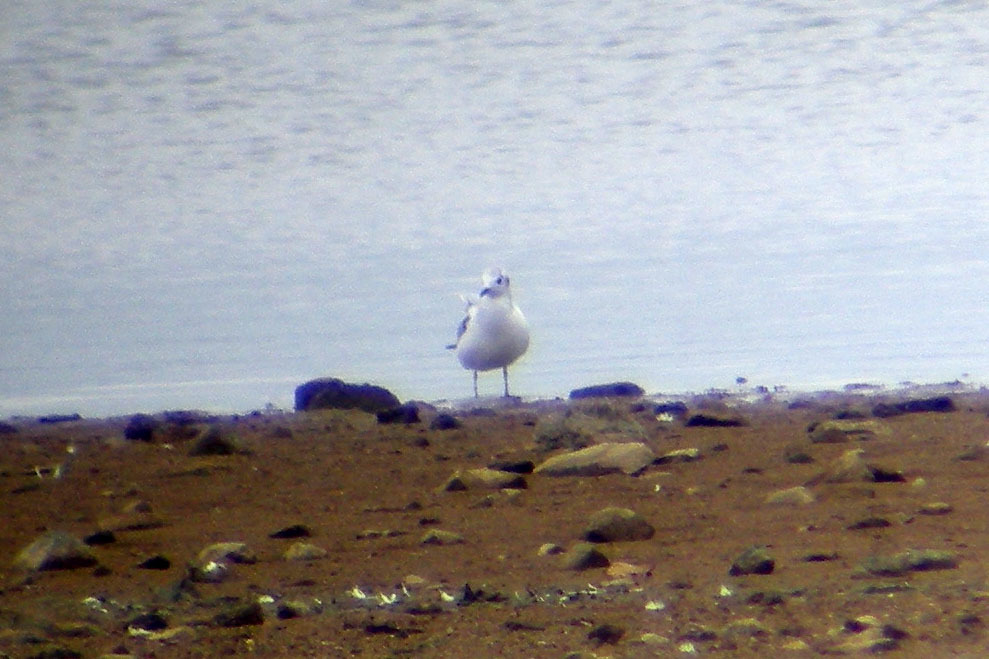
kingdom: Animalia
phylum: Chordata
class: Aves
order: Charadriiformes
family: Laridae
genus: Chroicocephalus
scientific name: Chroicocephalus philadelphia
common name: Bonaparte's gull
